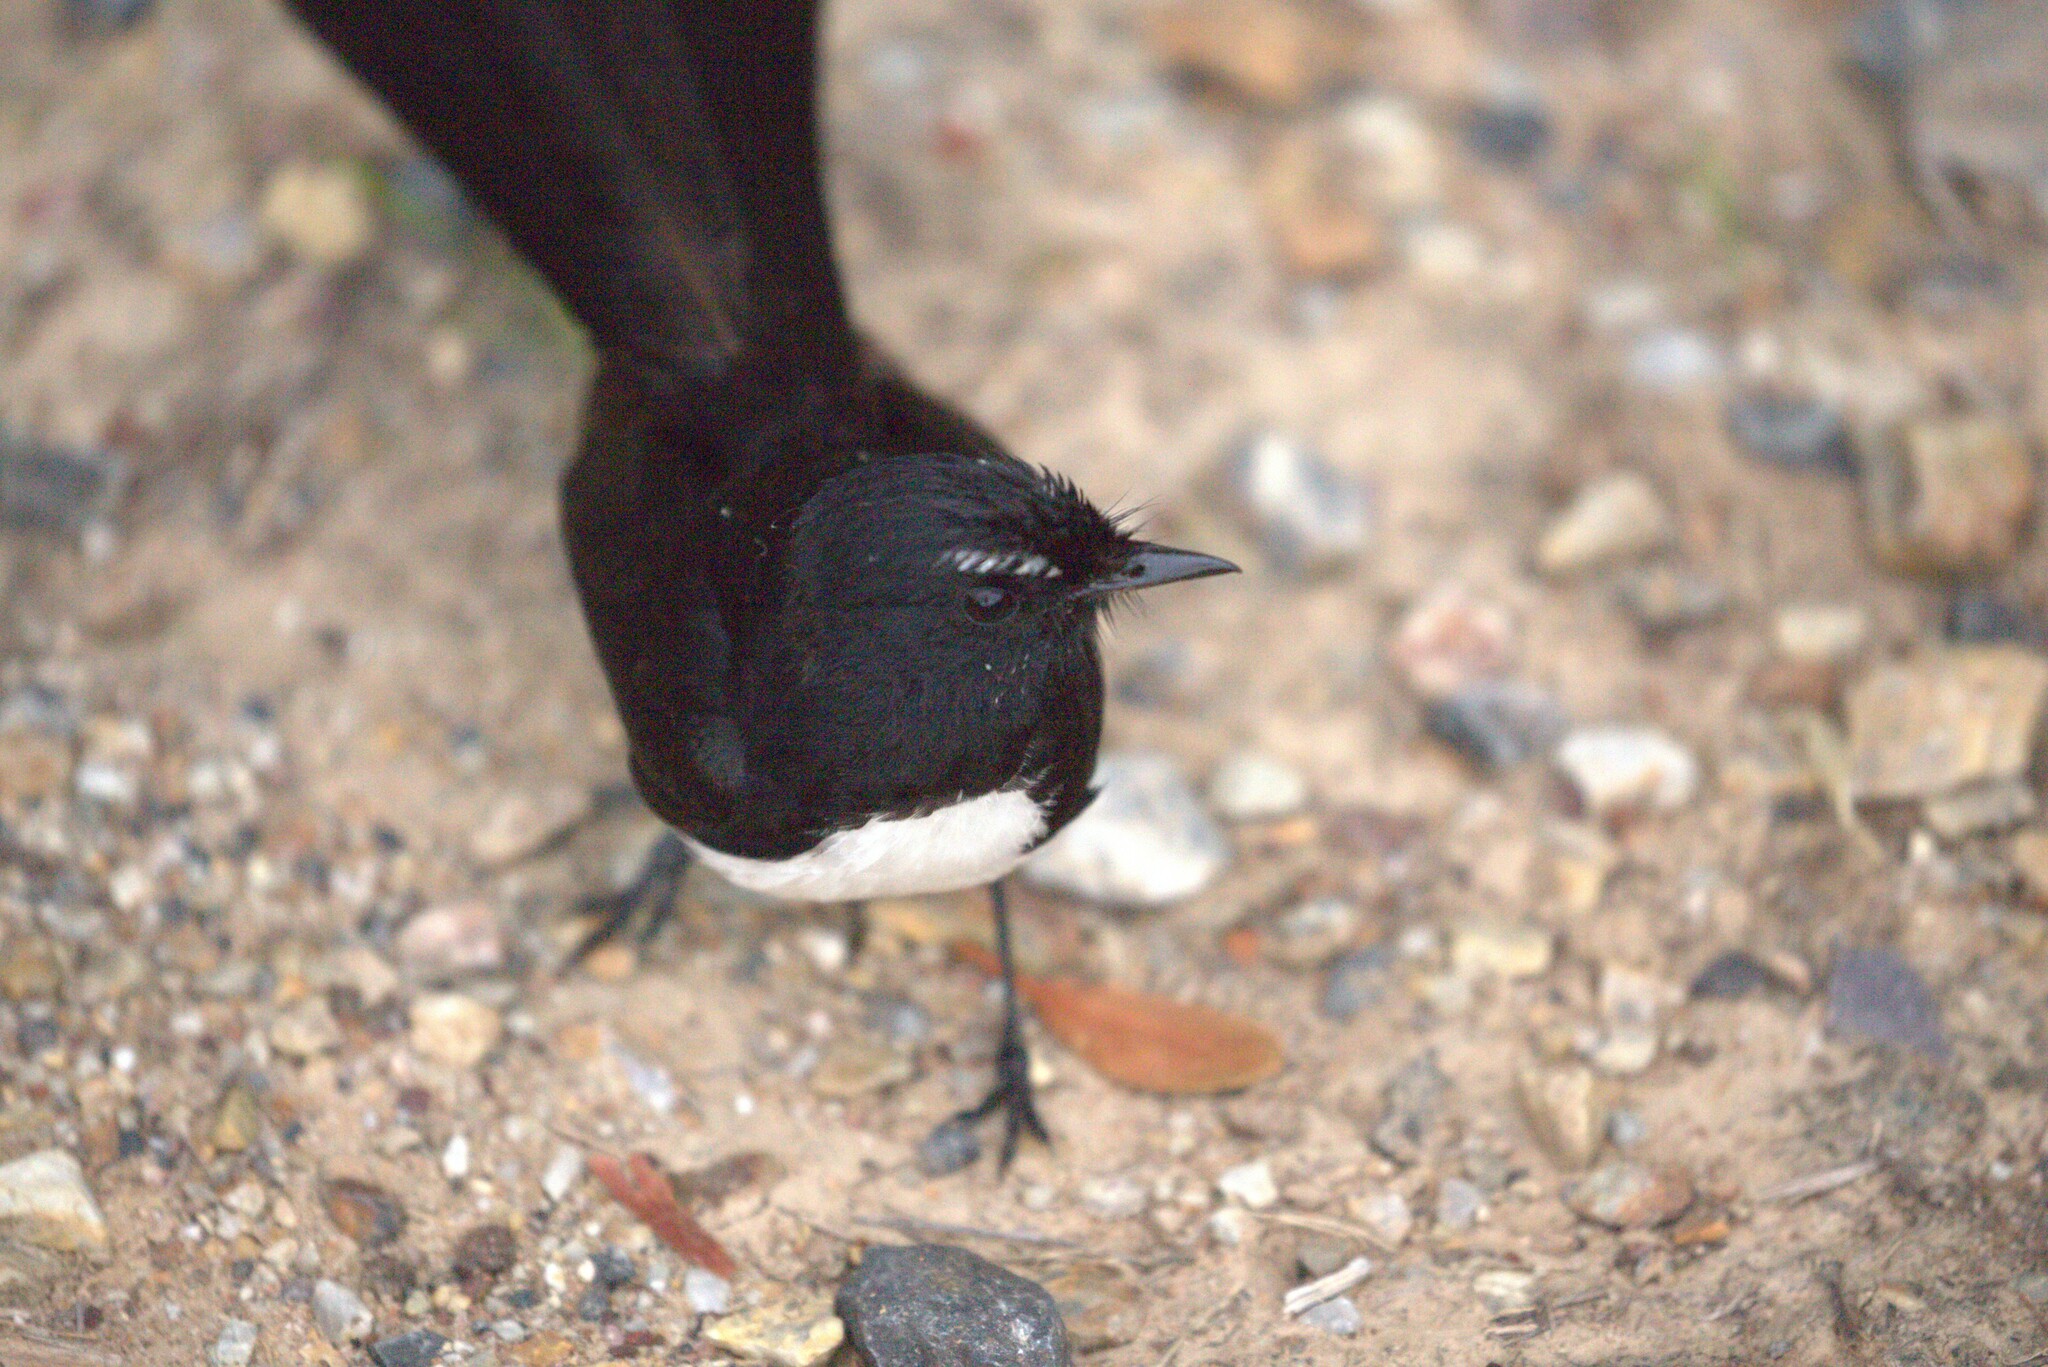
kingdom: Animalia
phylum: Chordata
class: Aves
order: Passeriformes
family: Rhipiduridae
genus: Rhipidura
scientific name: Rhipidura leucophrys
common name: Willie wagtail
